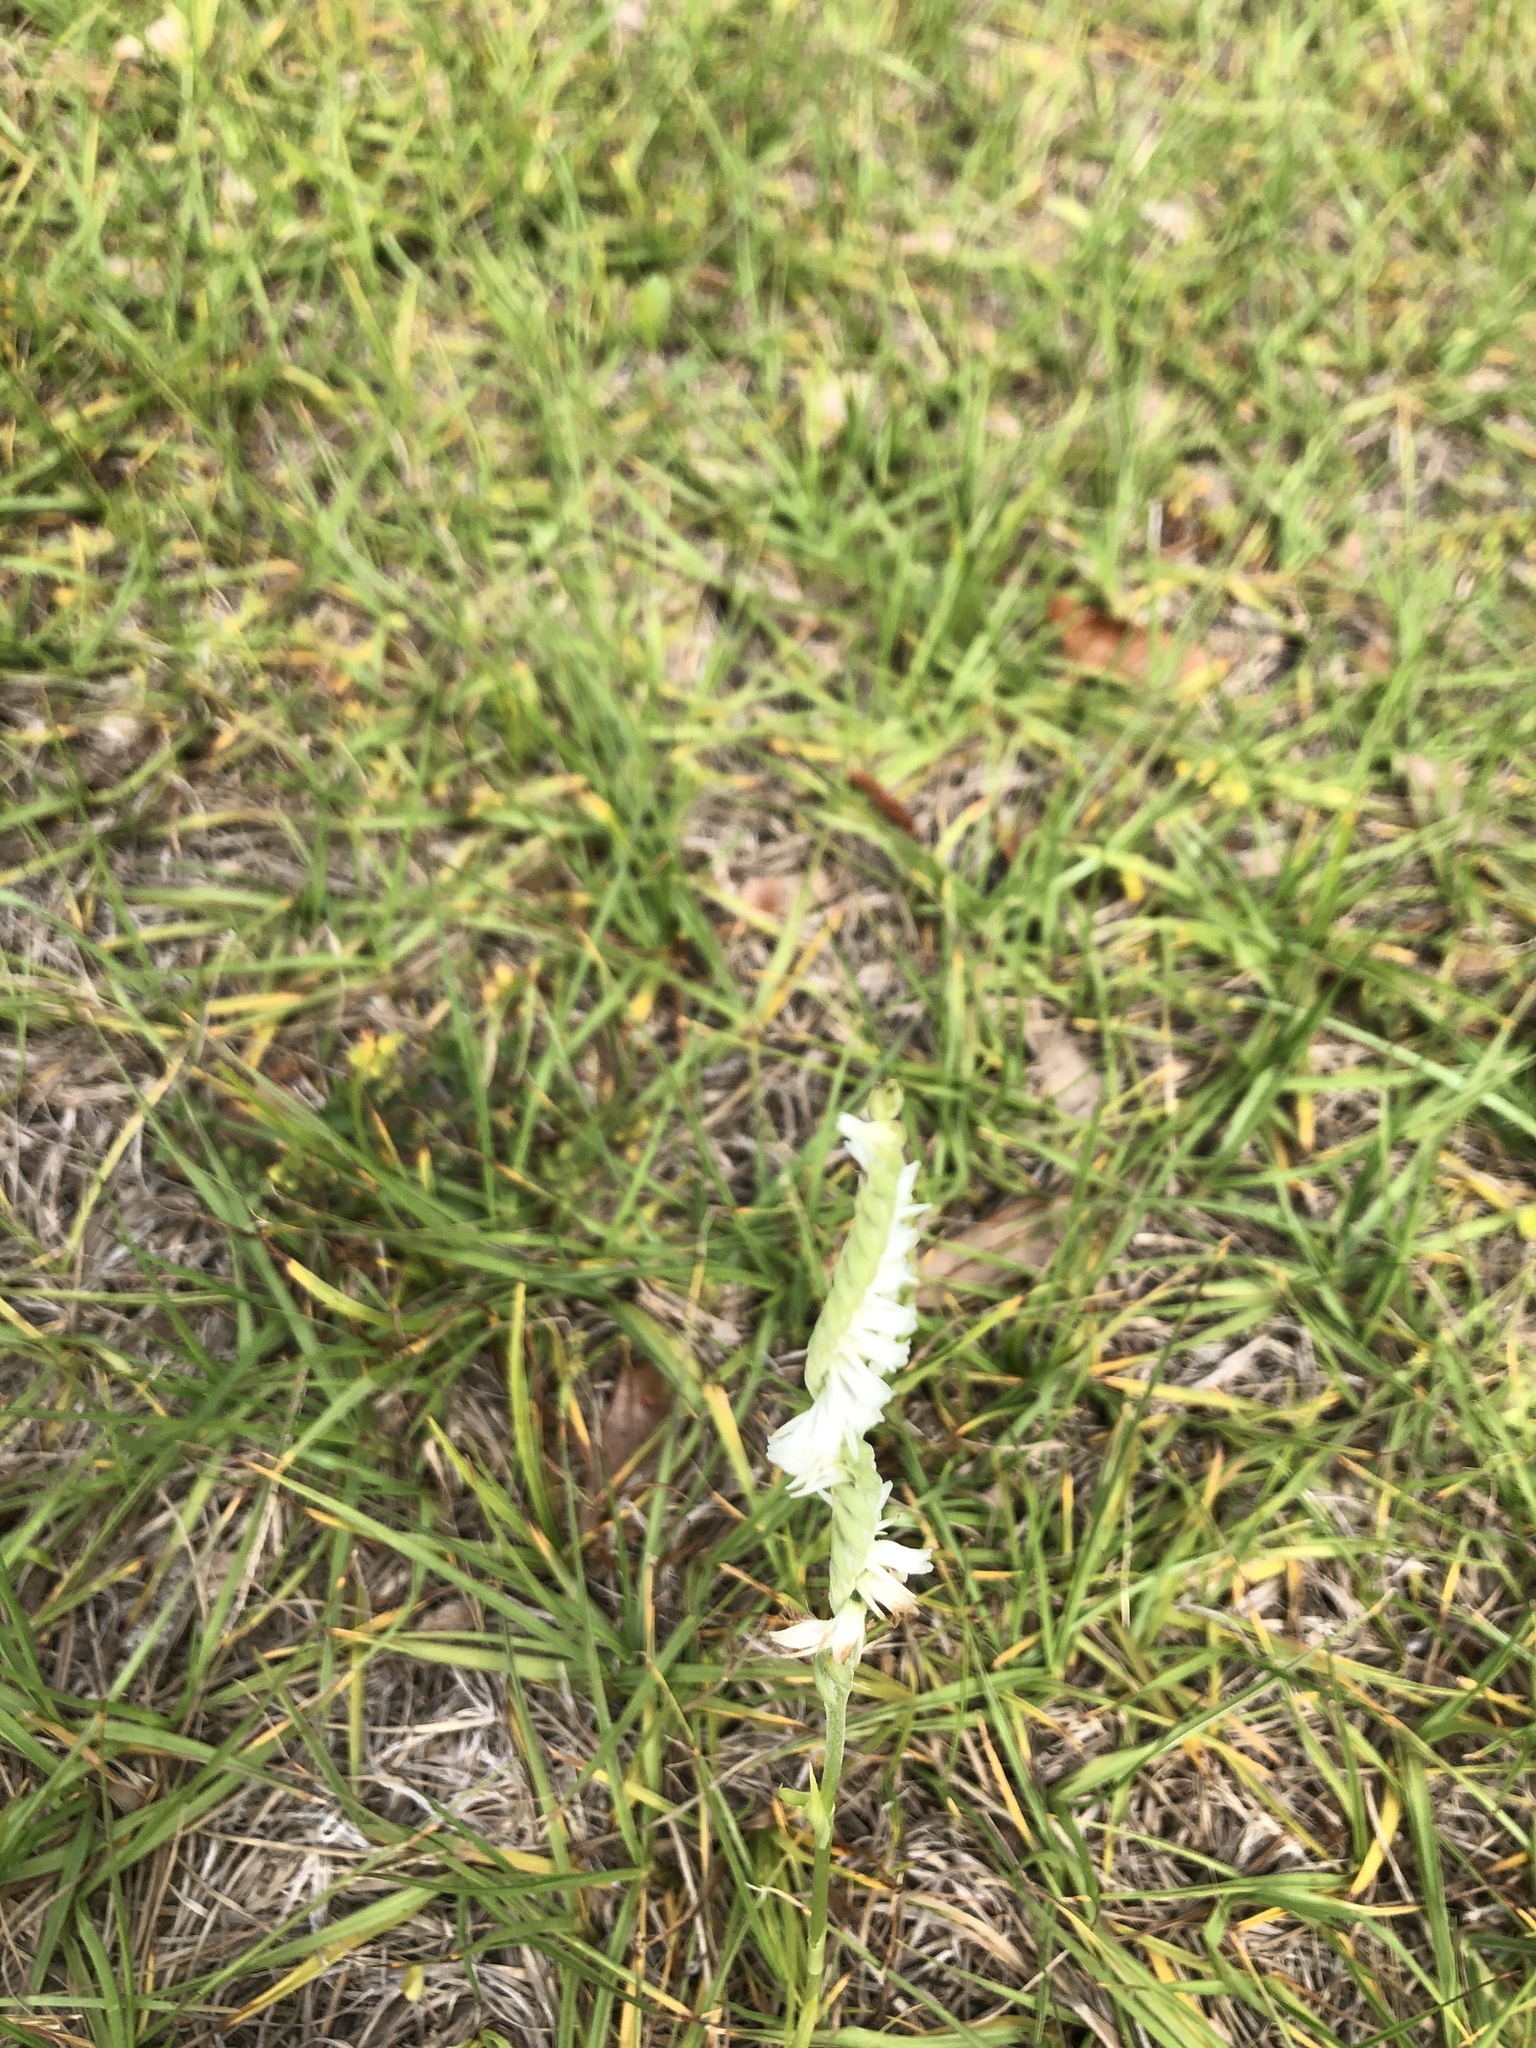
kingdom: Plantae
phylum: Tracheophyta
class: Liliopsida
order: Asparagales
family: Orchidaceae
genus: Spiranthes
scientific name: Spiranthes vernalis
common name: Spring ladies'-tresses
